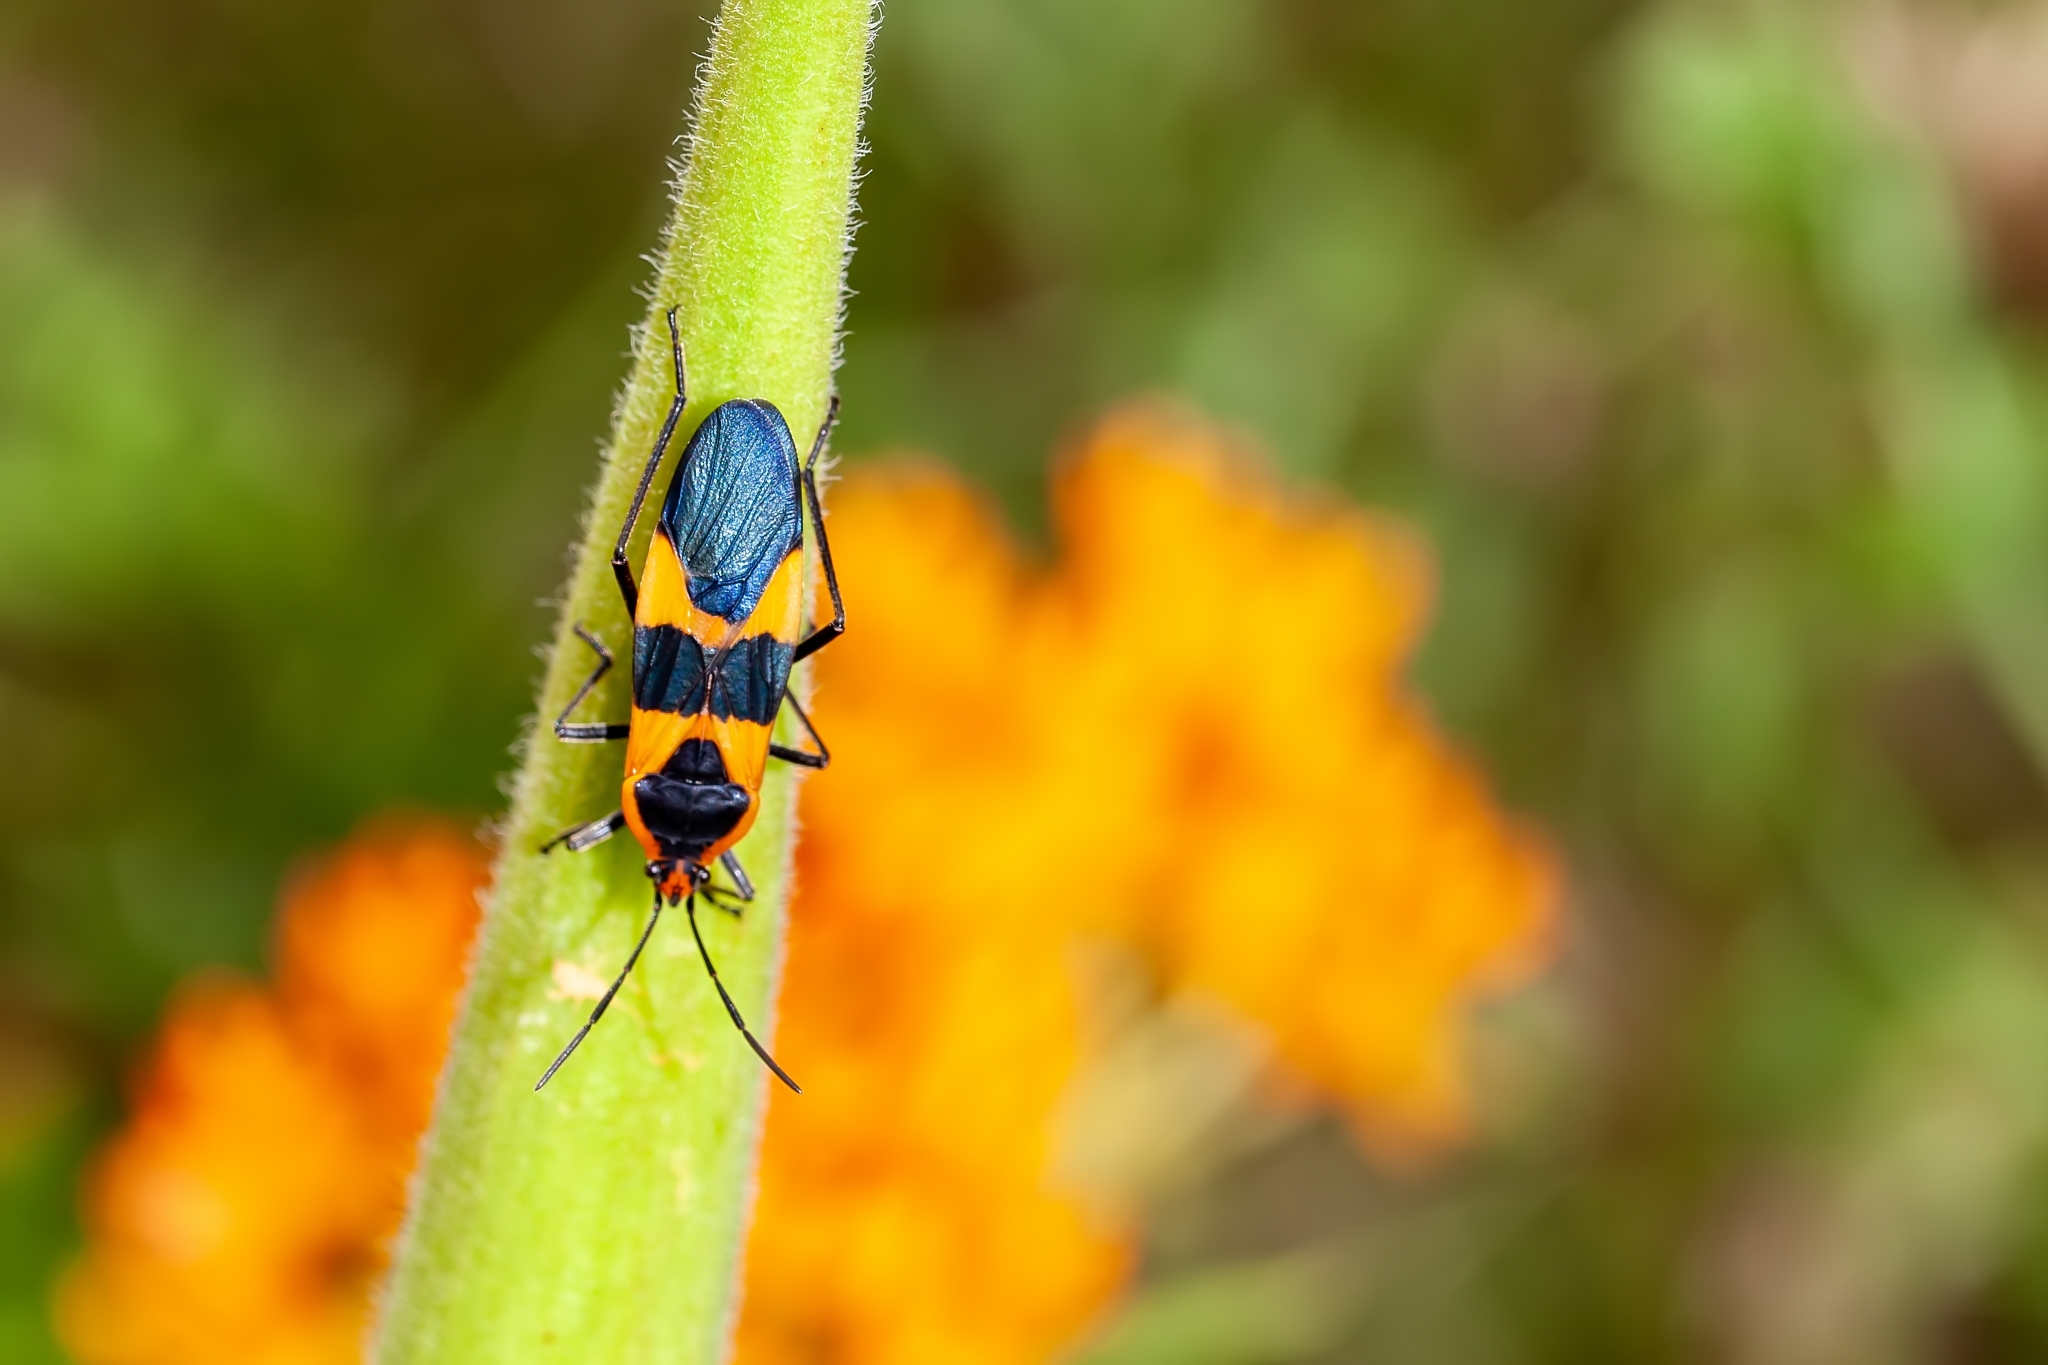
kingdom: Animalia
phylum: Arthropoda
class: Insecta
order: Hemiptera
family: Lygaeidae
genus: Oncopeltus
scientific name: Oncopeltus fasciatus
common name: Large milkweed bug
